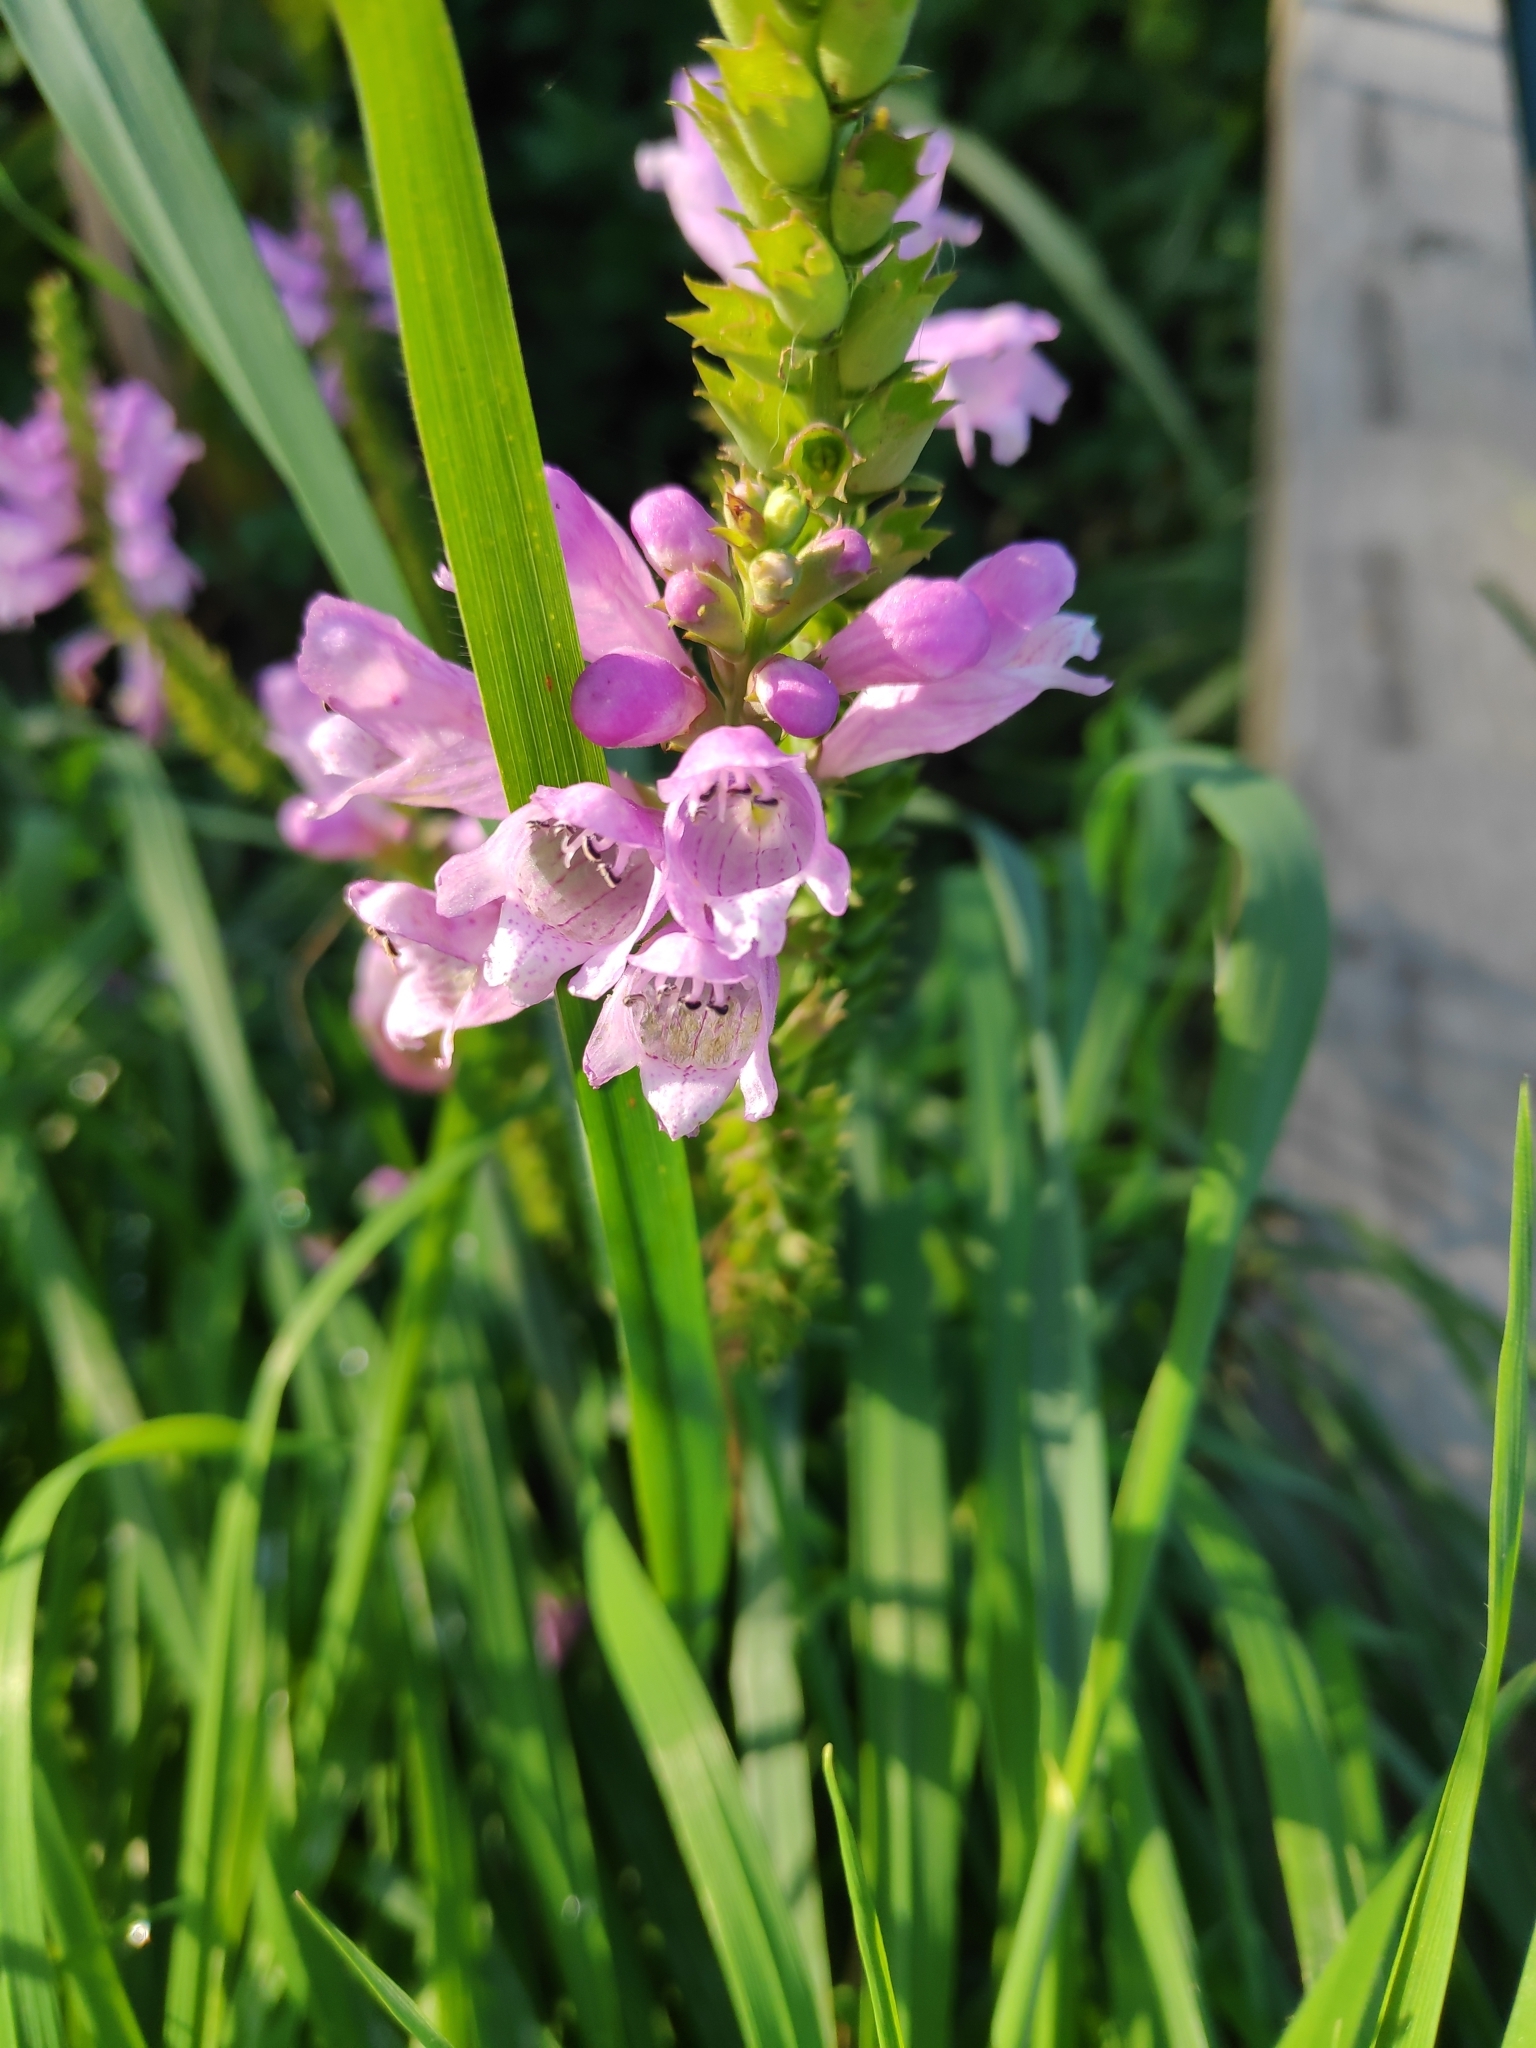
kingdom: Plantae
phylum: Tracheophyta
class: Magnoliopsida
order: Lamiales
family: Lamiaceae
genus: Physostegia
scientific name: Physostegia virginiana
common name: Obedient-plant
